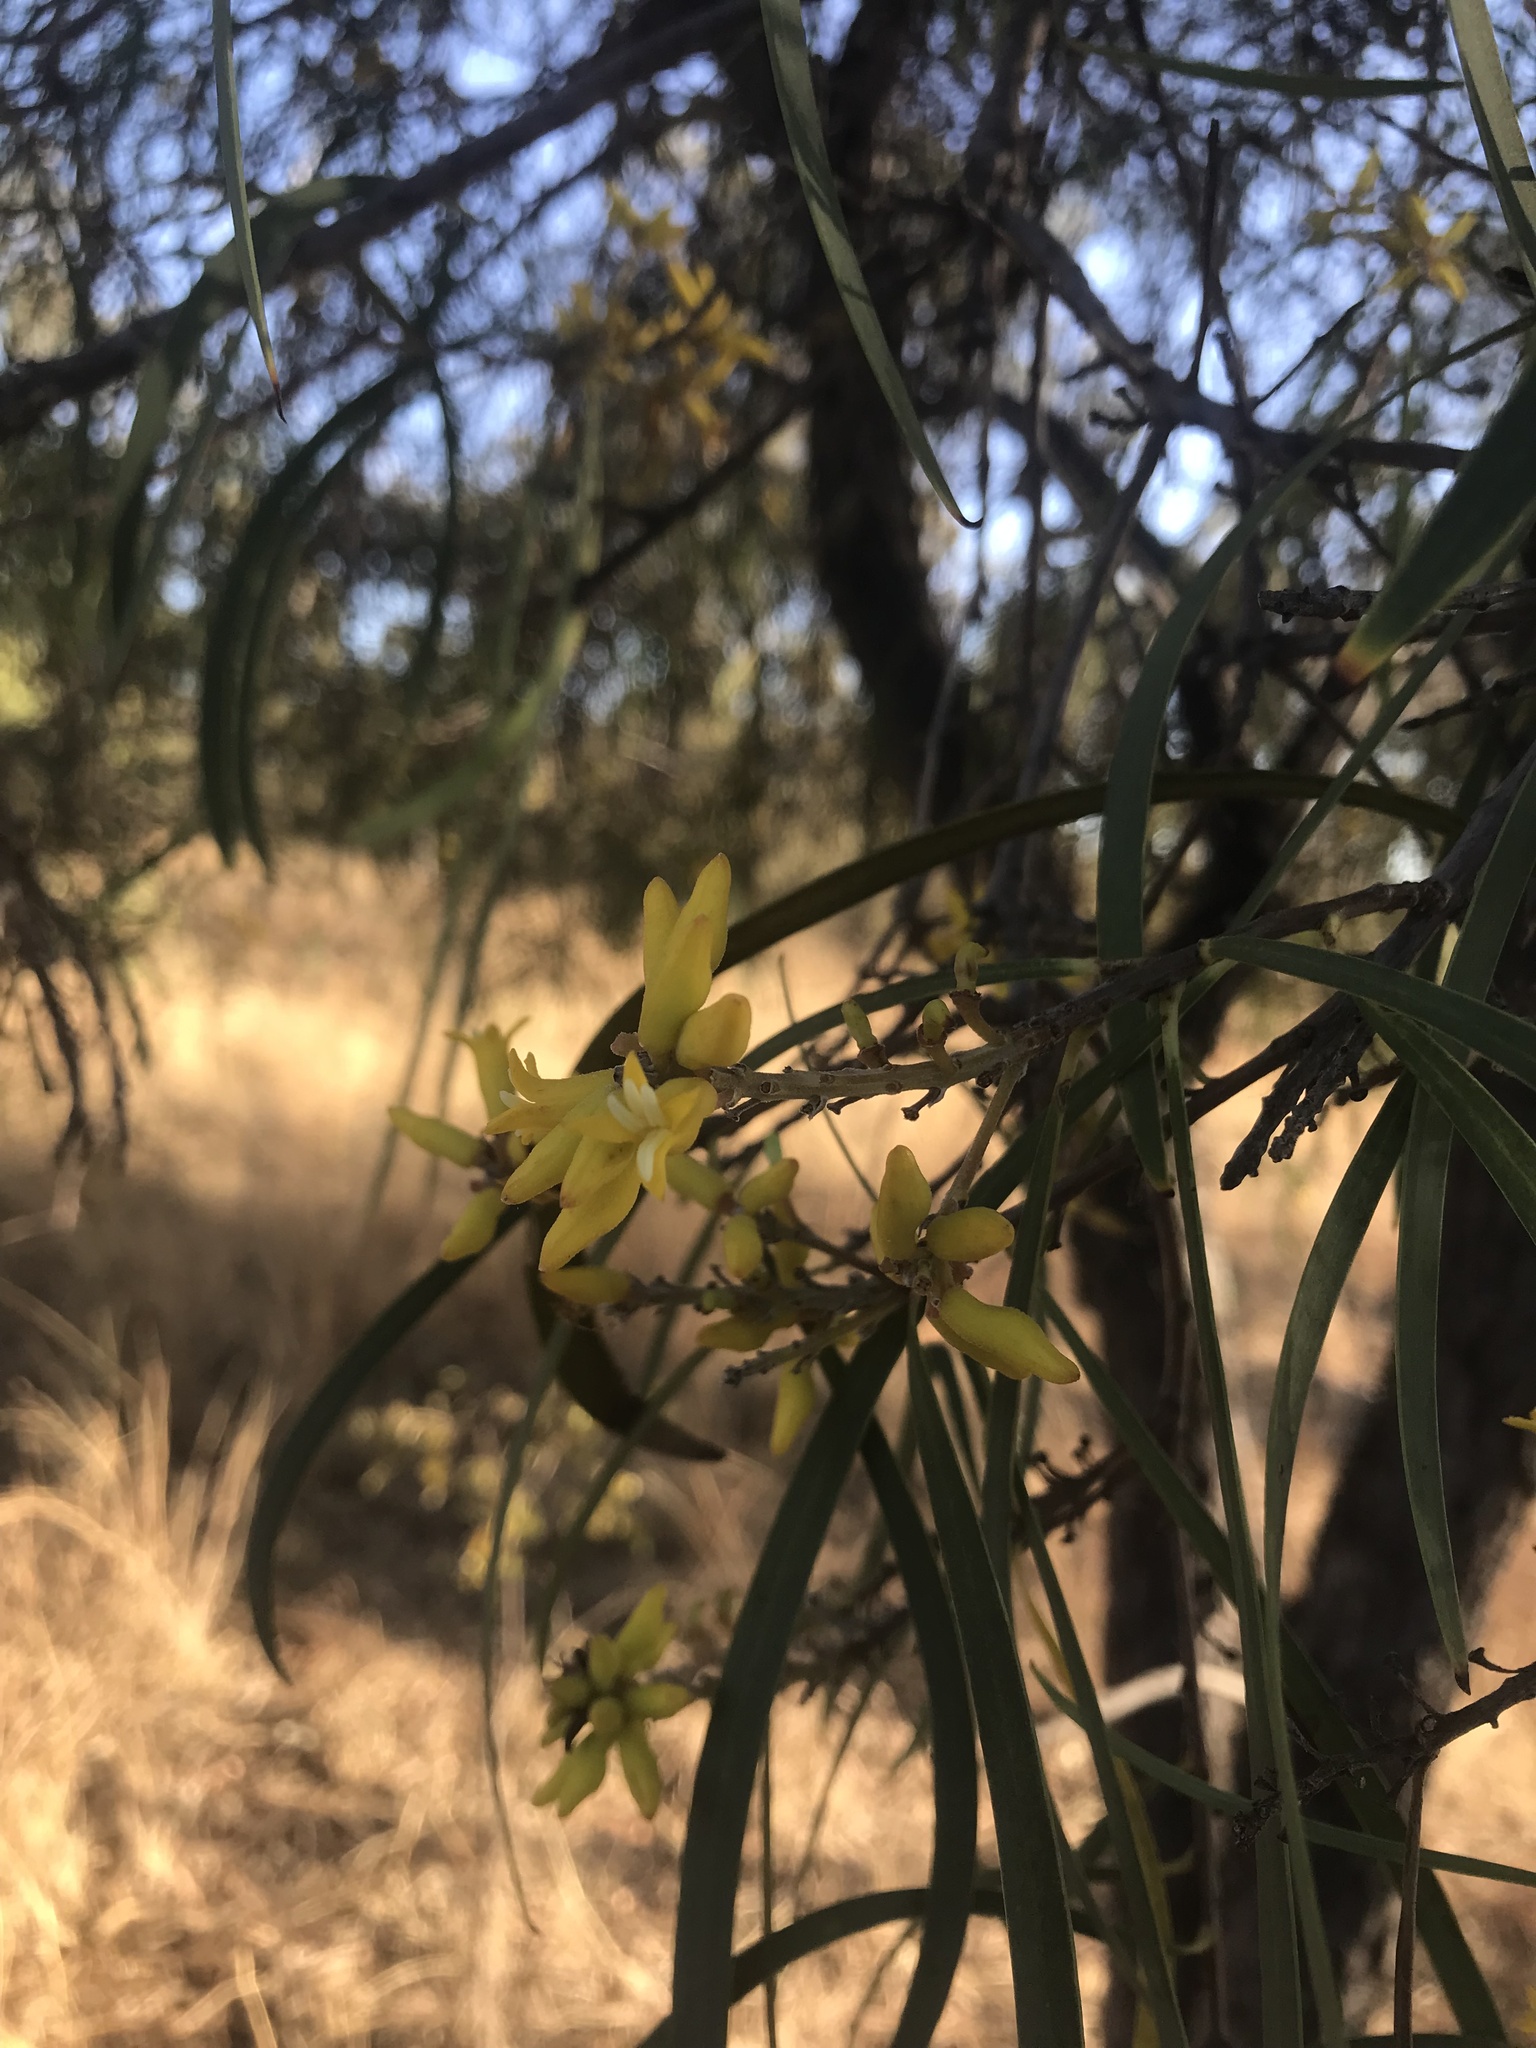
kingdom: Plantae
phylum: Tracheophyta
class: Magnoliopsida
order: Proteales
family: Proteaceae
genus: Persoonia
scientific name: Persoonia falcata
